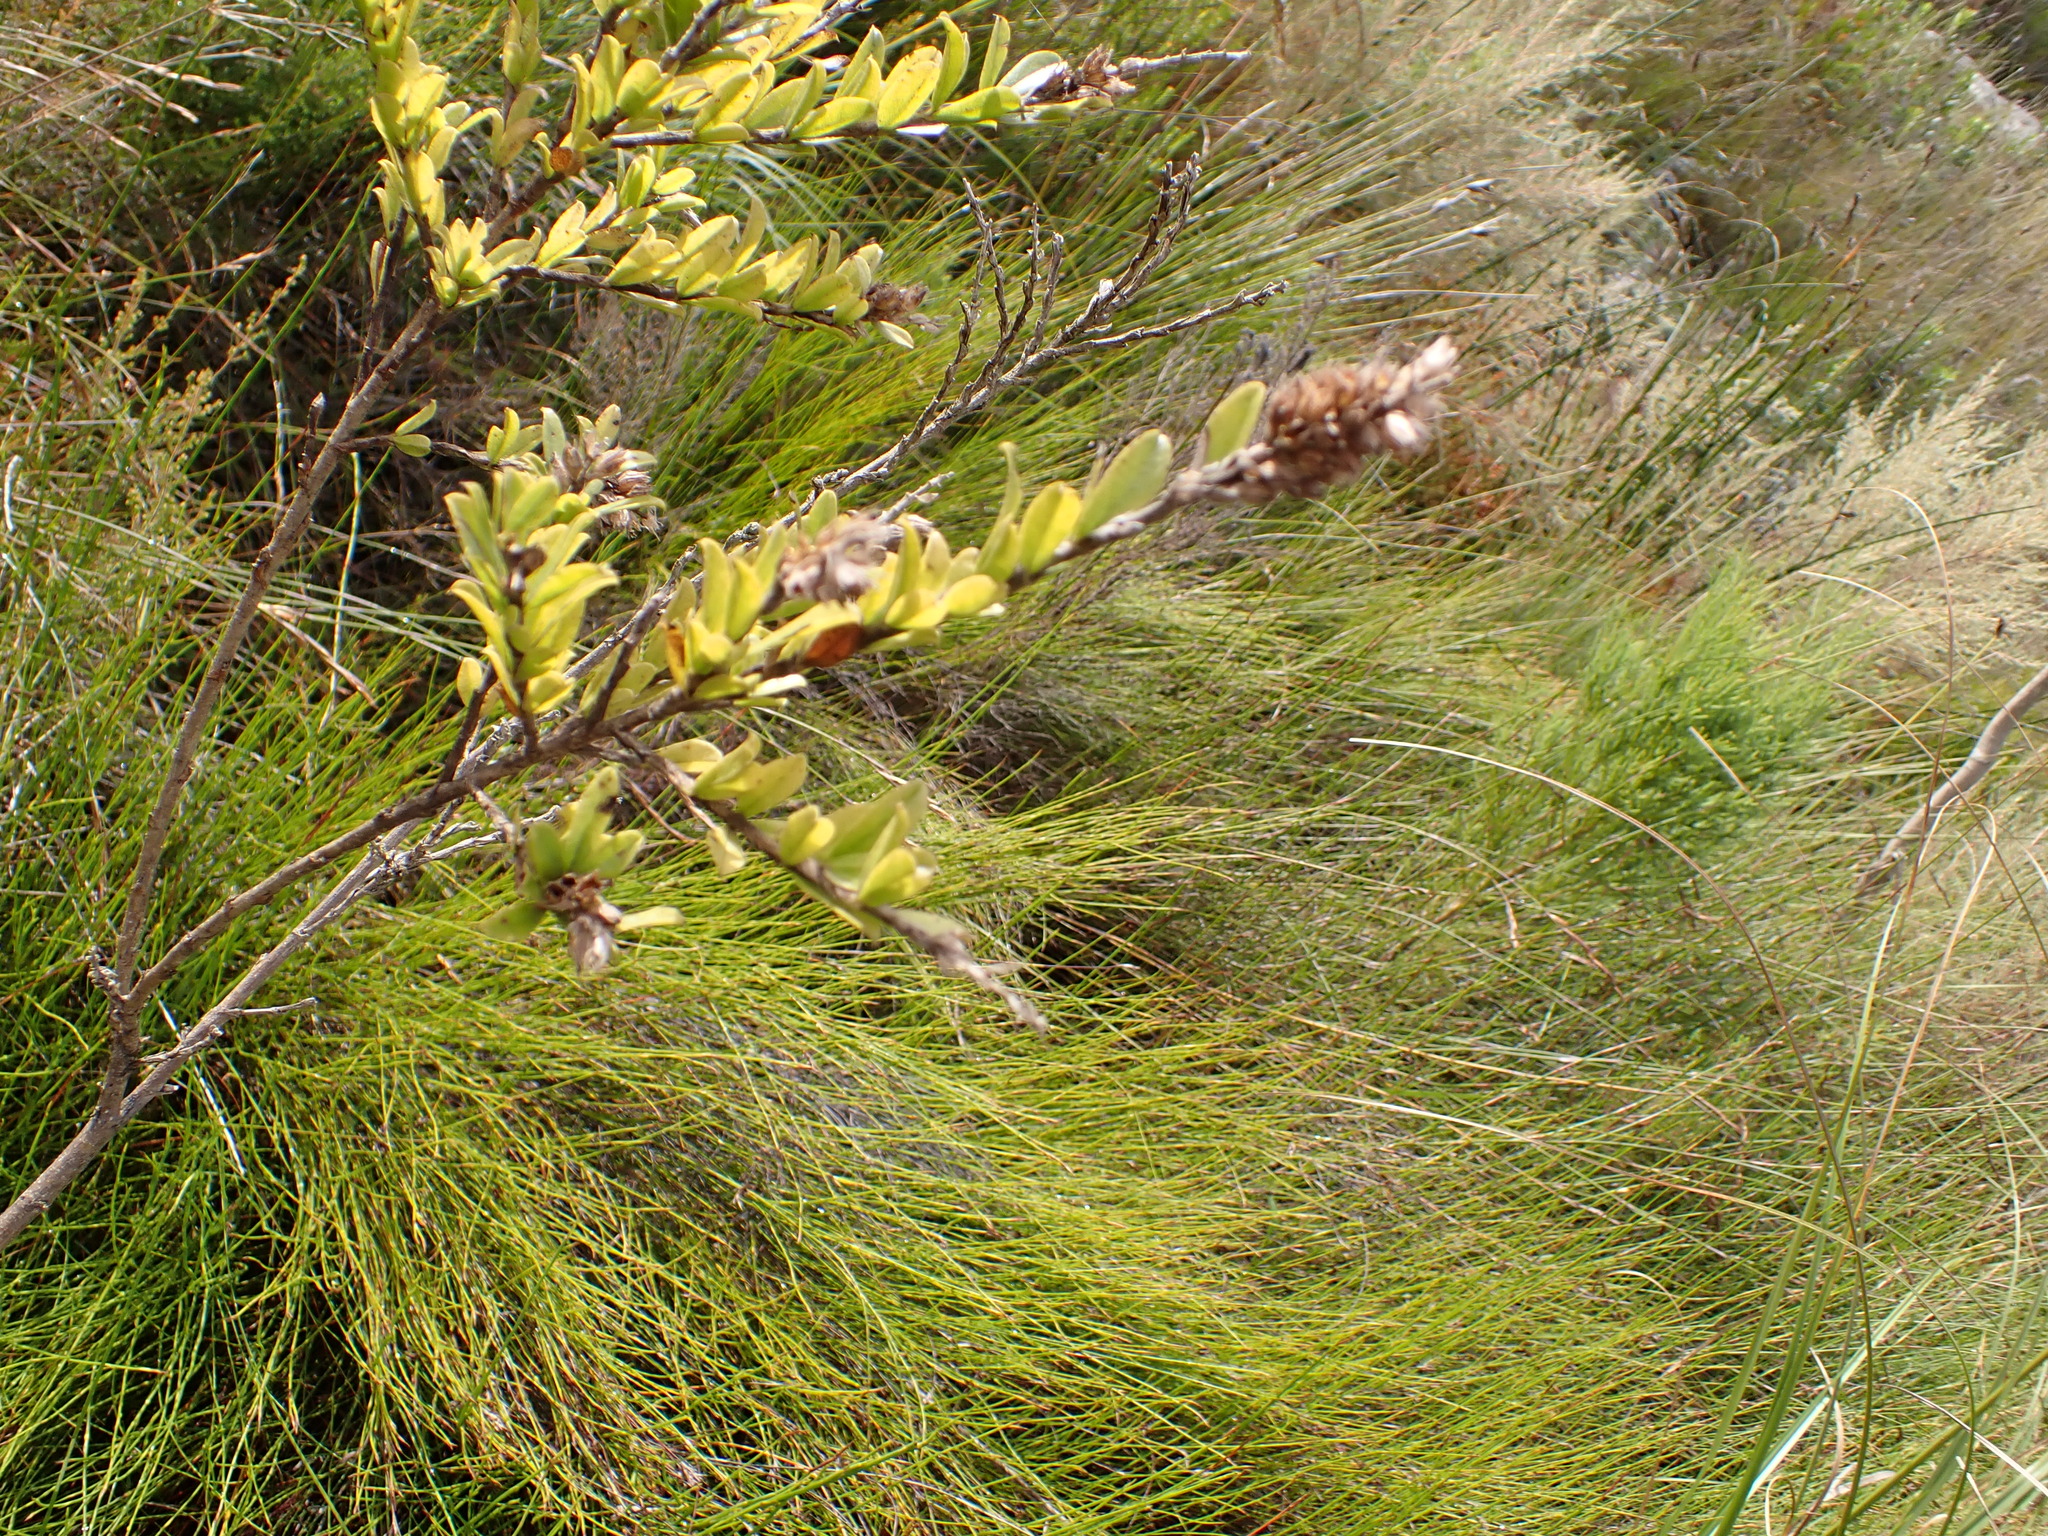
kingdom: Plantae
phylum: Tracheophyta
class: Magnoliopsida
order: Fabales
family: Fabaceae
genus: Psoralea
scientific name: Psoralea spicata
